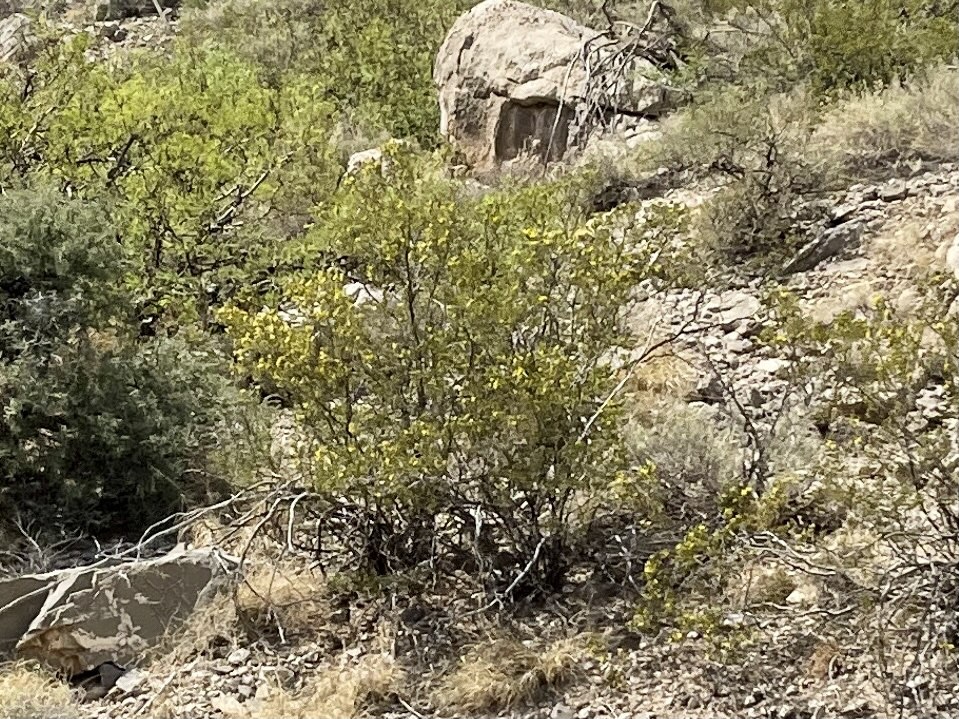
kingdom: Plantae
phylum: Tracheophyta
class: Magnoliopsida
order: Zygophyllales
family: Zygophyllaceae
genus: Larrea
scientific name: Larrea tridentata
